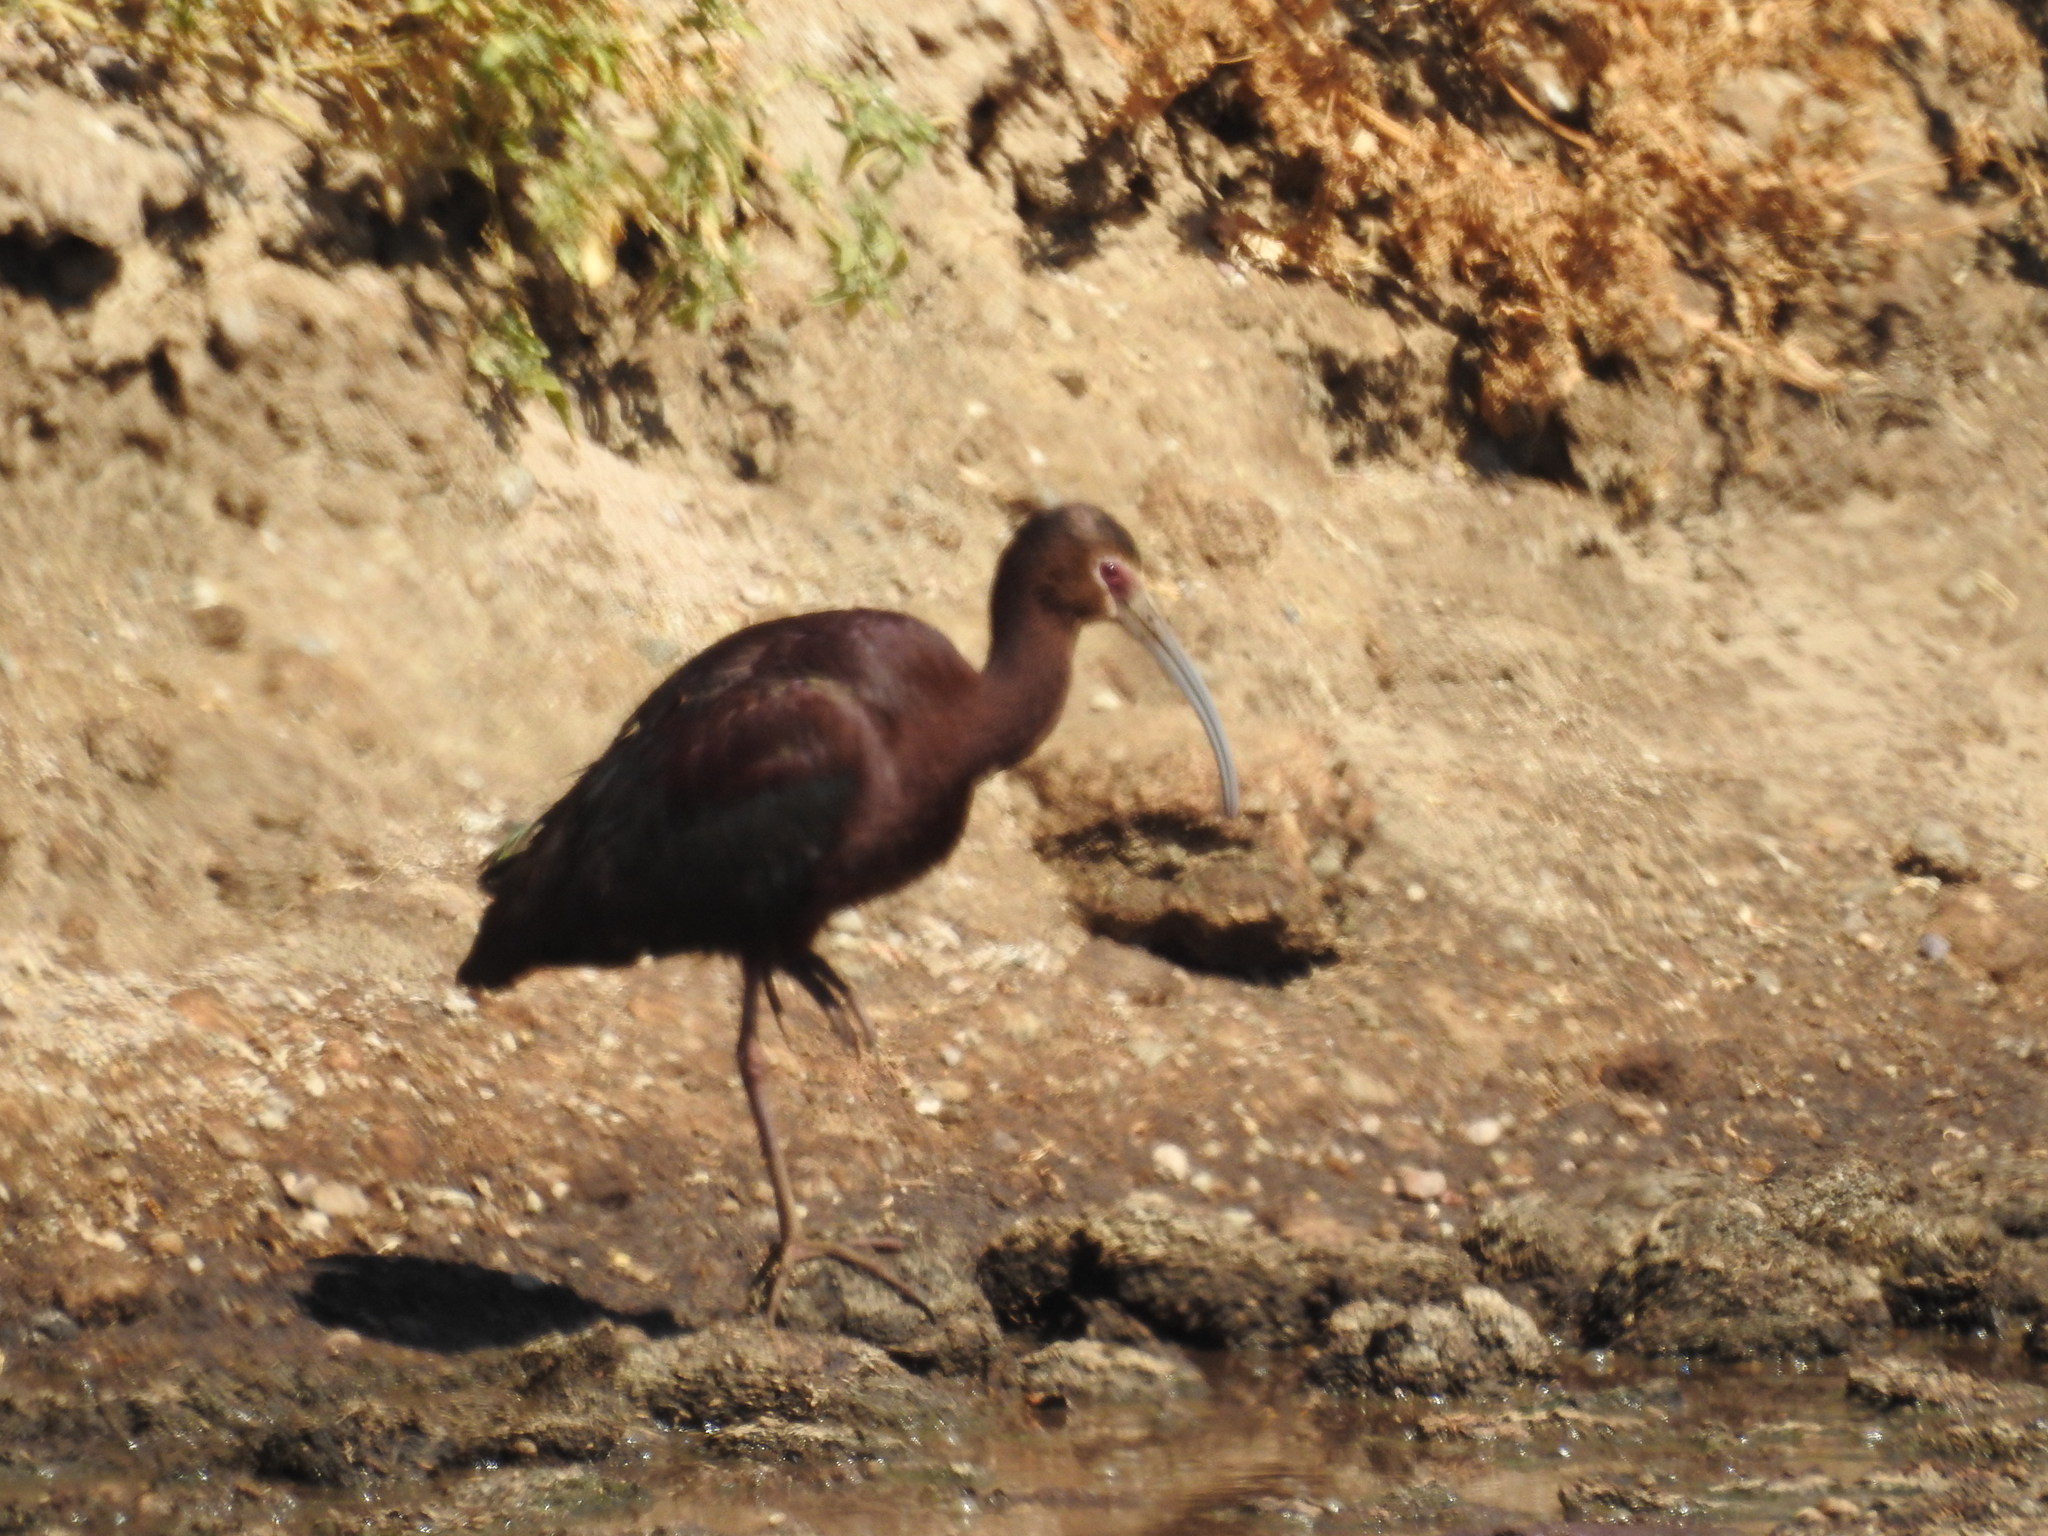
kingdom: Animalia
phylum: Chordata
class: Aves
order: Pelecaniformes
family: Threskiornithidae
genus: Plegadis
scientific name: Plegadis chihi
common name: White-faced ibis
